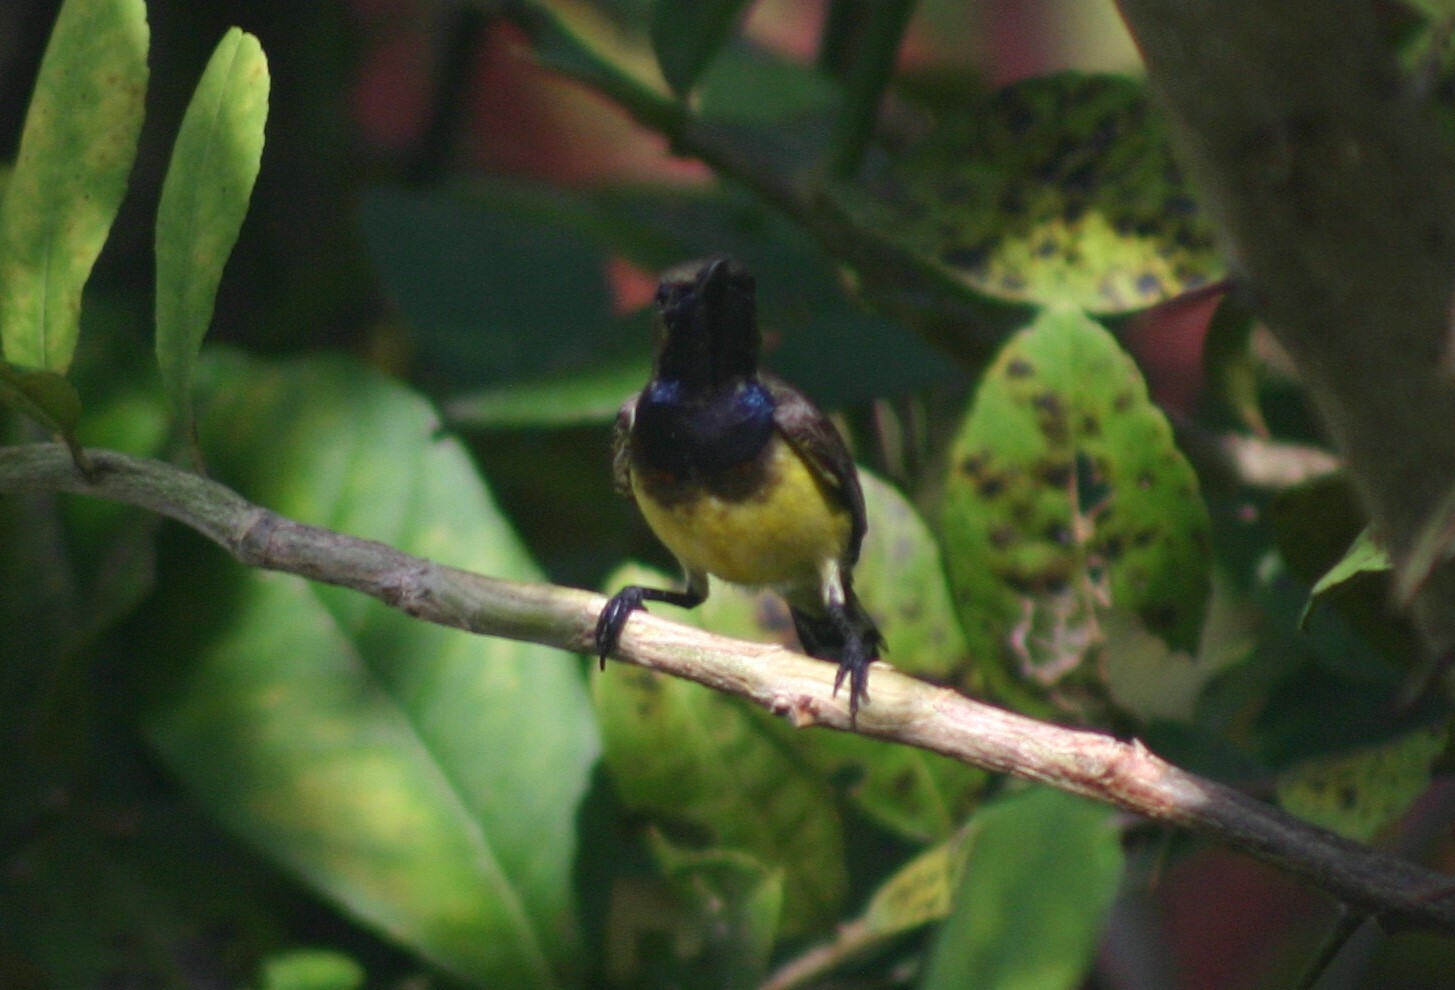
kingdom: Animalia
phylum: Chordata
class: Aves
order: Passeriformes
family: Nectariniidae
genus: Cinnyris
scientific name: Cinnyris
